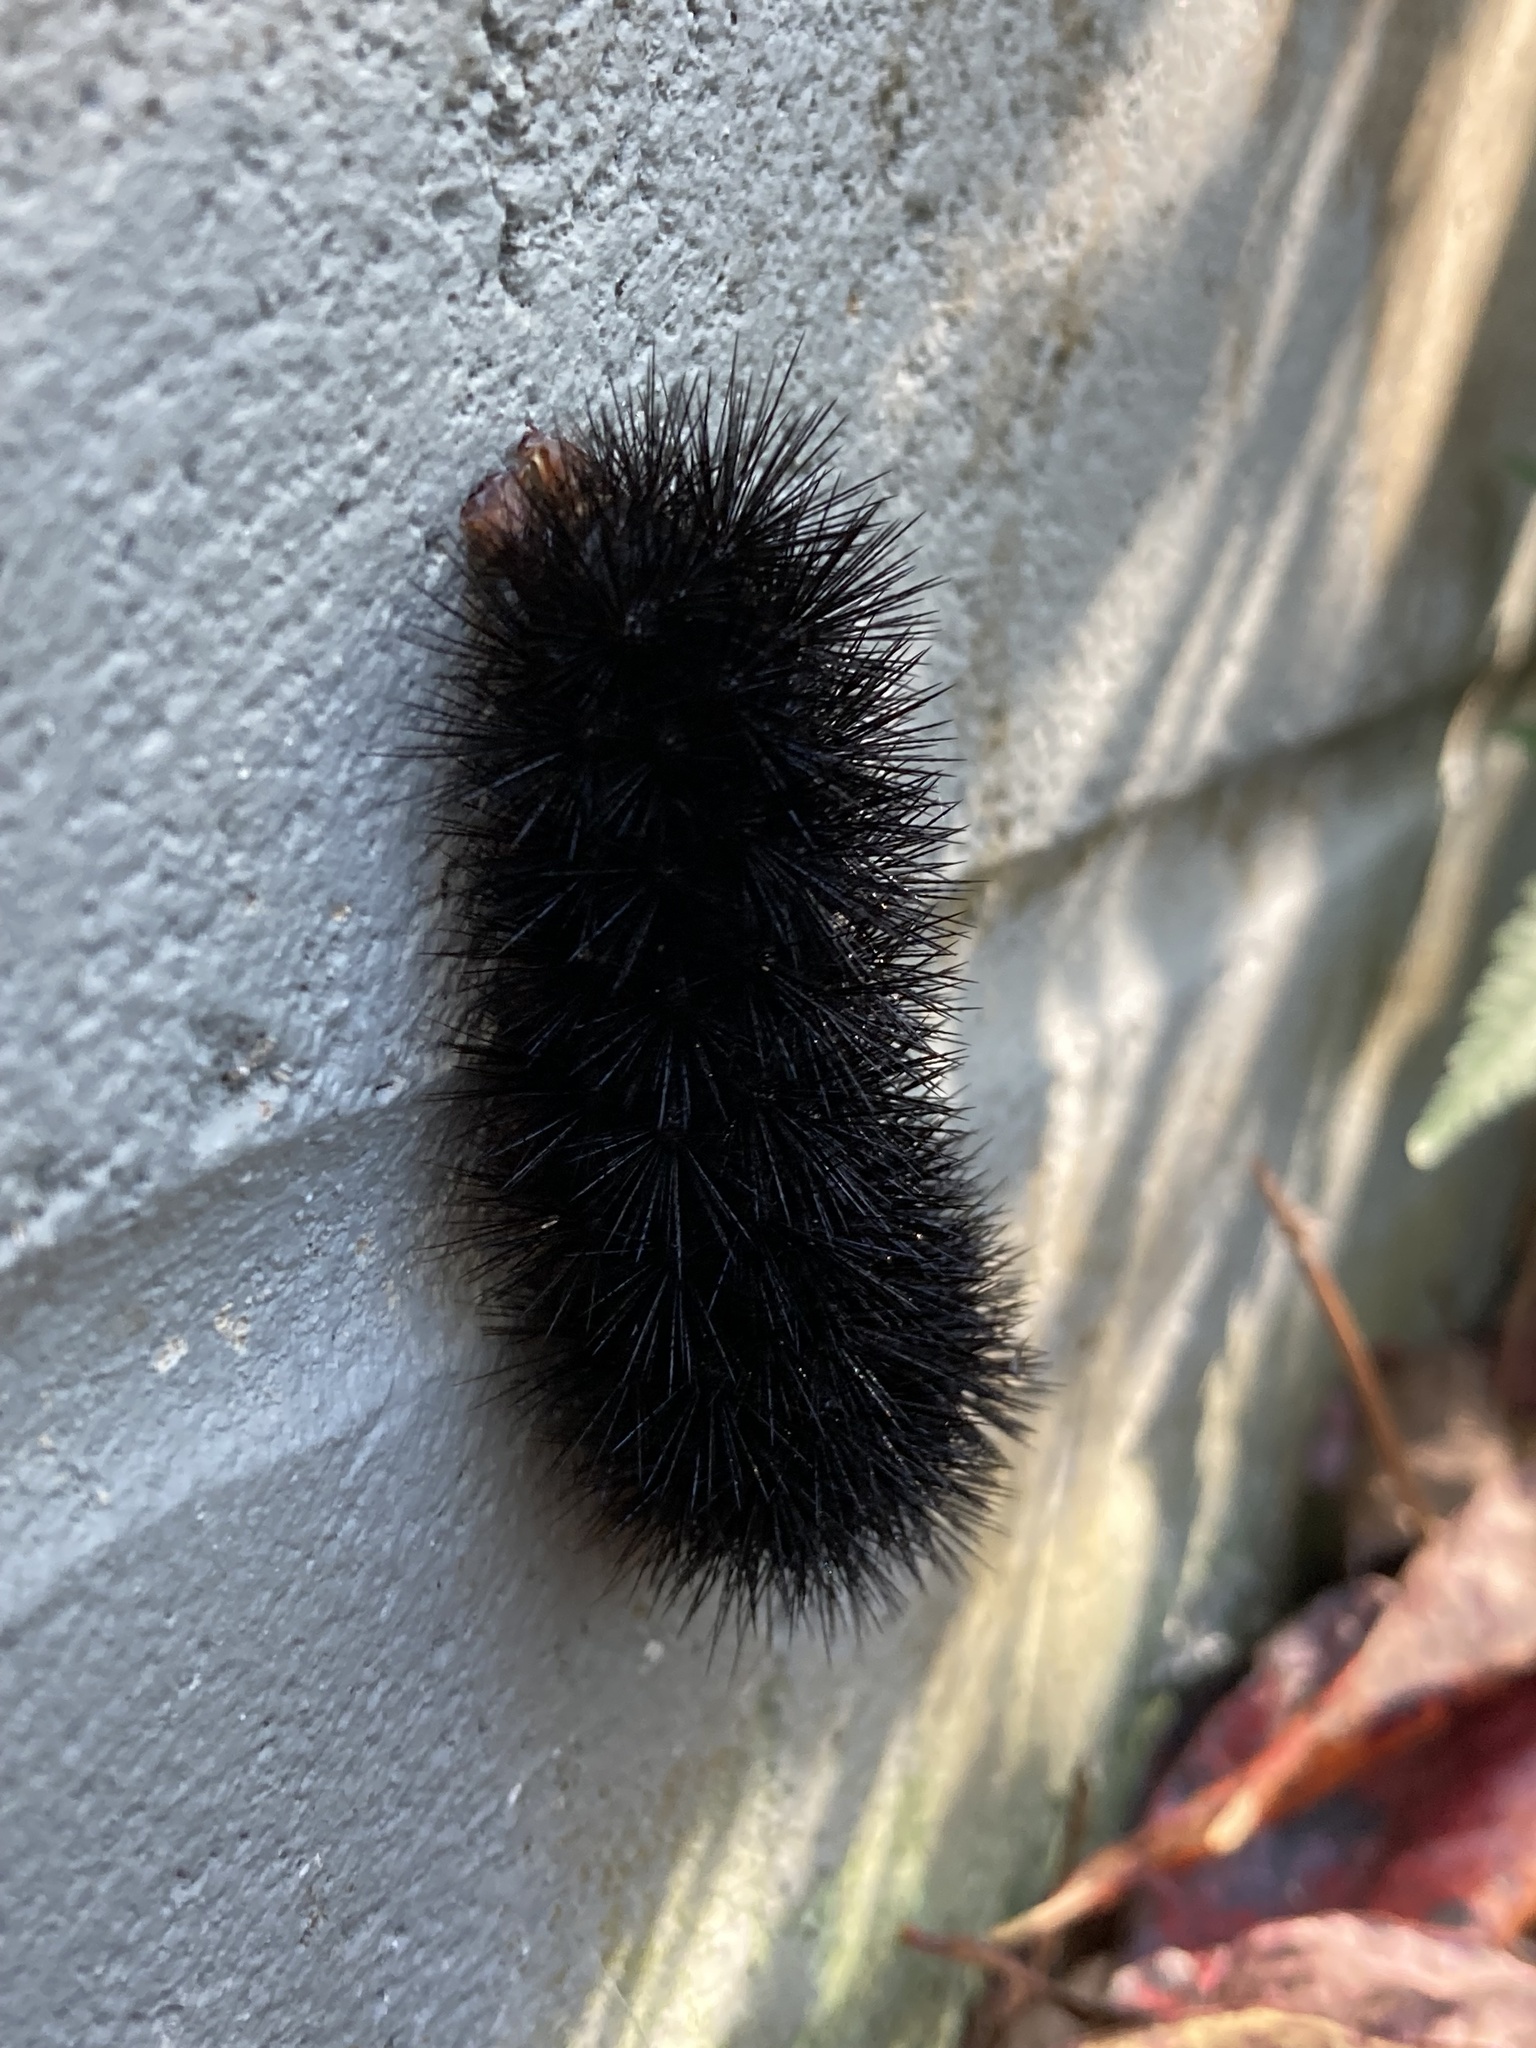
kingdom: Animalia
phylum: Arthropoda
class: Insecta
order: Lepidoptera
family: Erebidae
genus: Hypercompe
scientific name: Hypercompe scribonia
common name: Giant leopard moth
